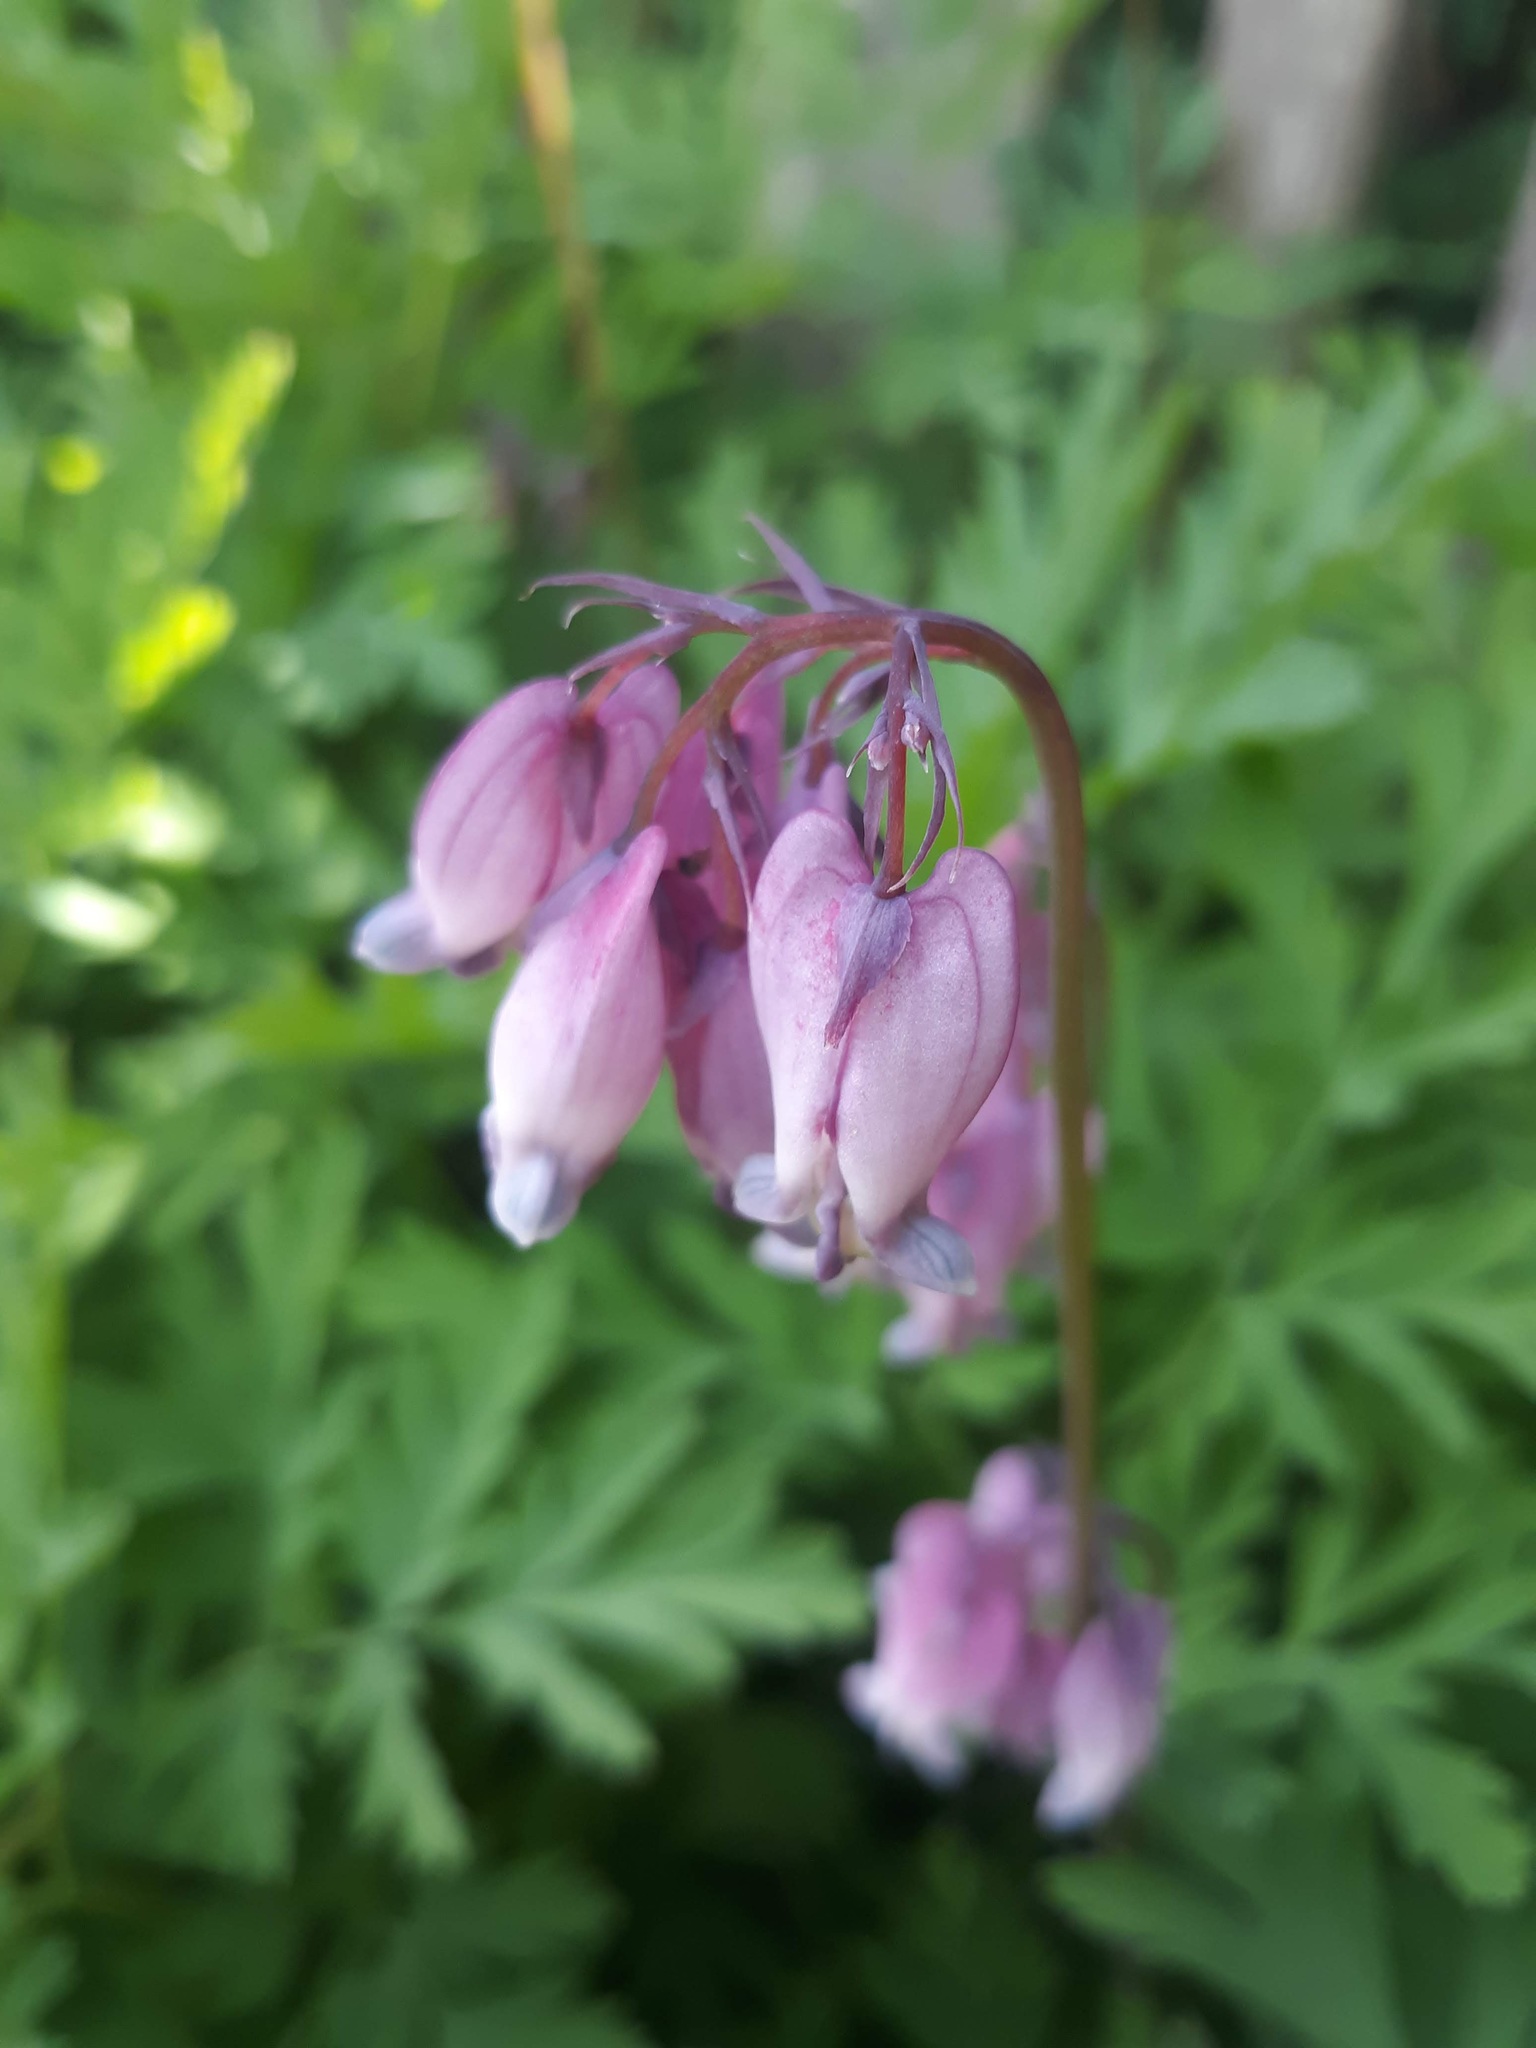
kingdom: Plantae
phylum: Tracheophyta
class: Magnoliopsida
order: Ranunculales
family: Papaveraceae
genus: Dicentra
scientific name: Dicentra formosa
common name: Bleeding-heart
